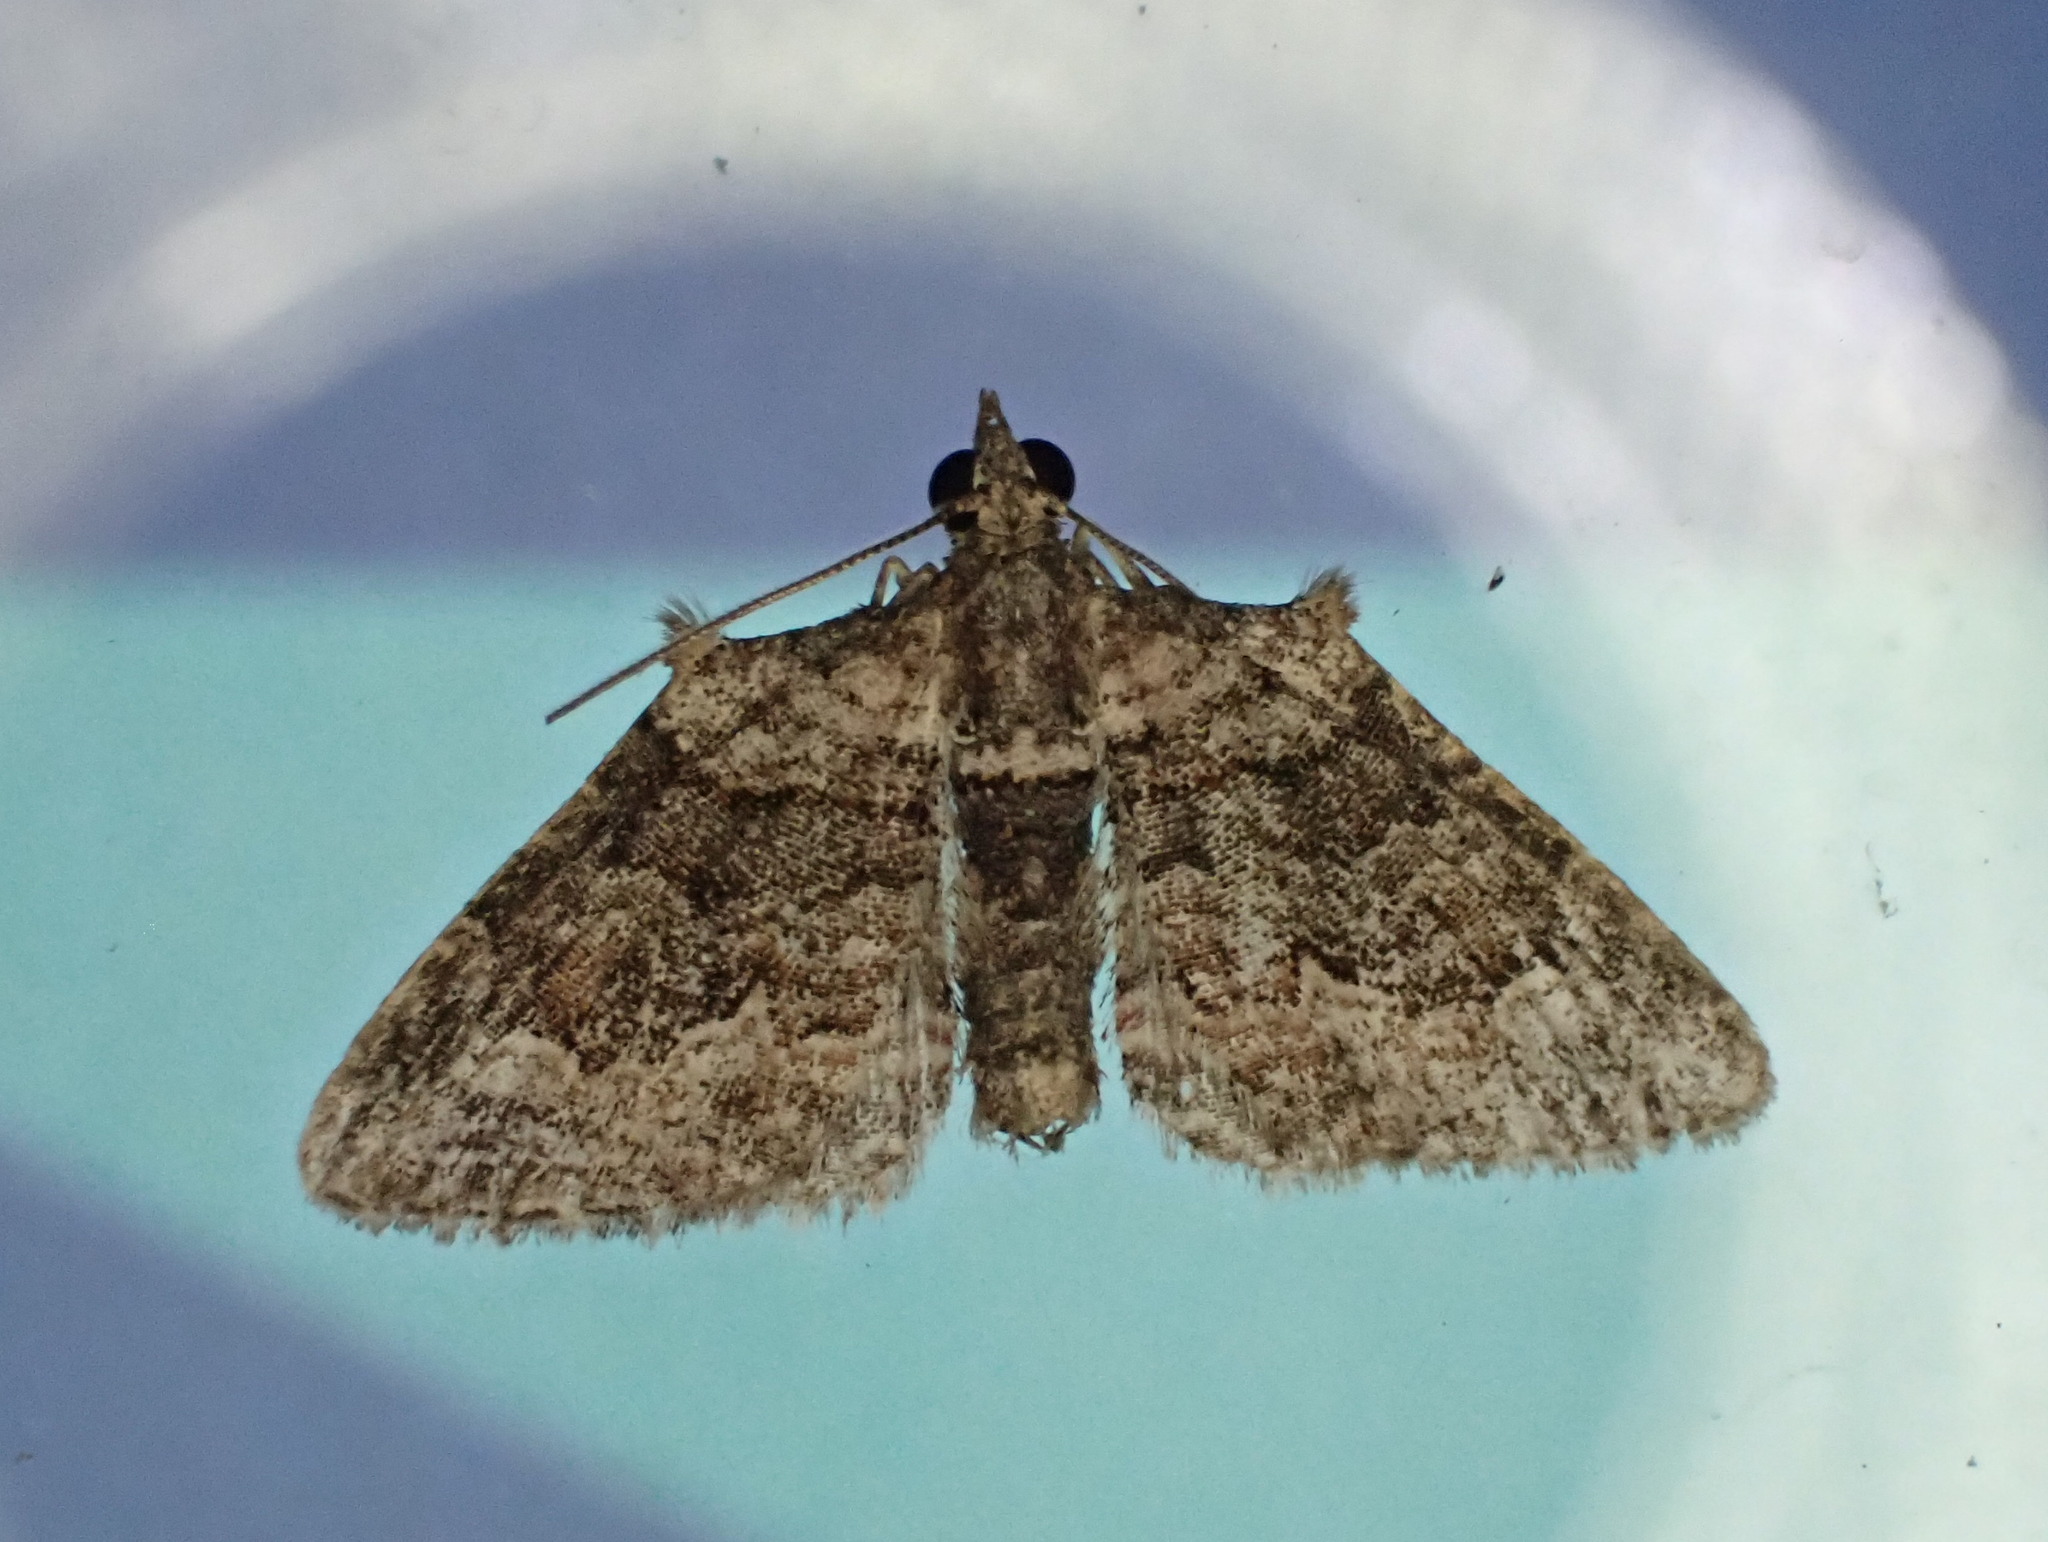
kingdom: Animalia
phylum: Arthropoda
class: Insecta
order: Lepidoptera
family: Geometridae
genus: Phrissogonus
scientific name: Phrissogonus laticostata
